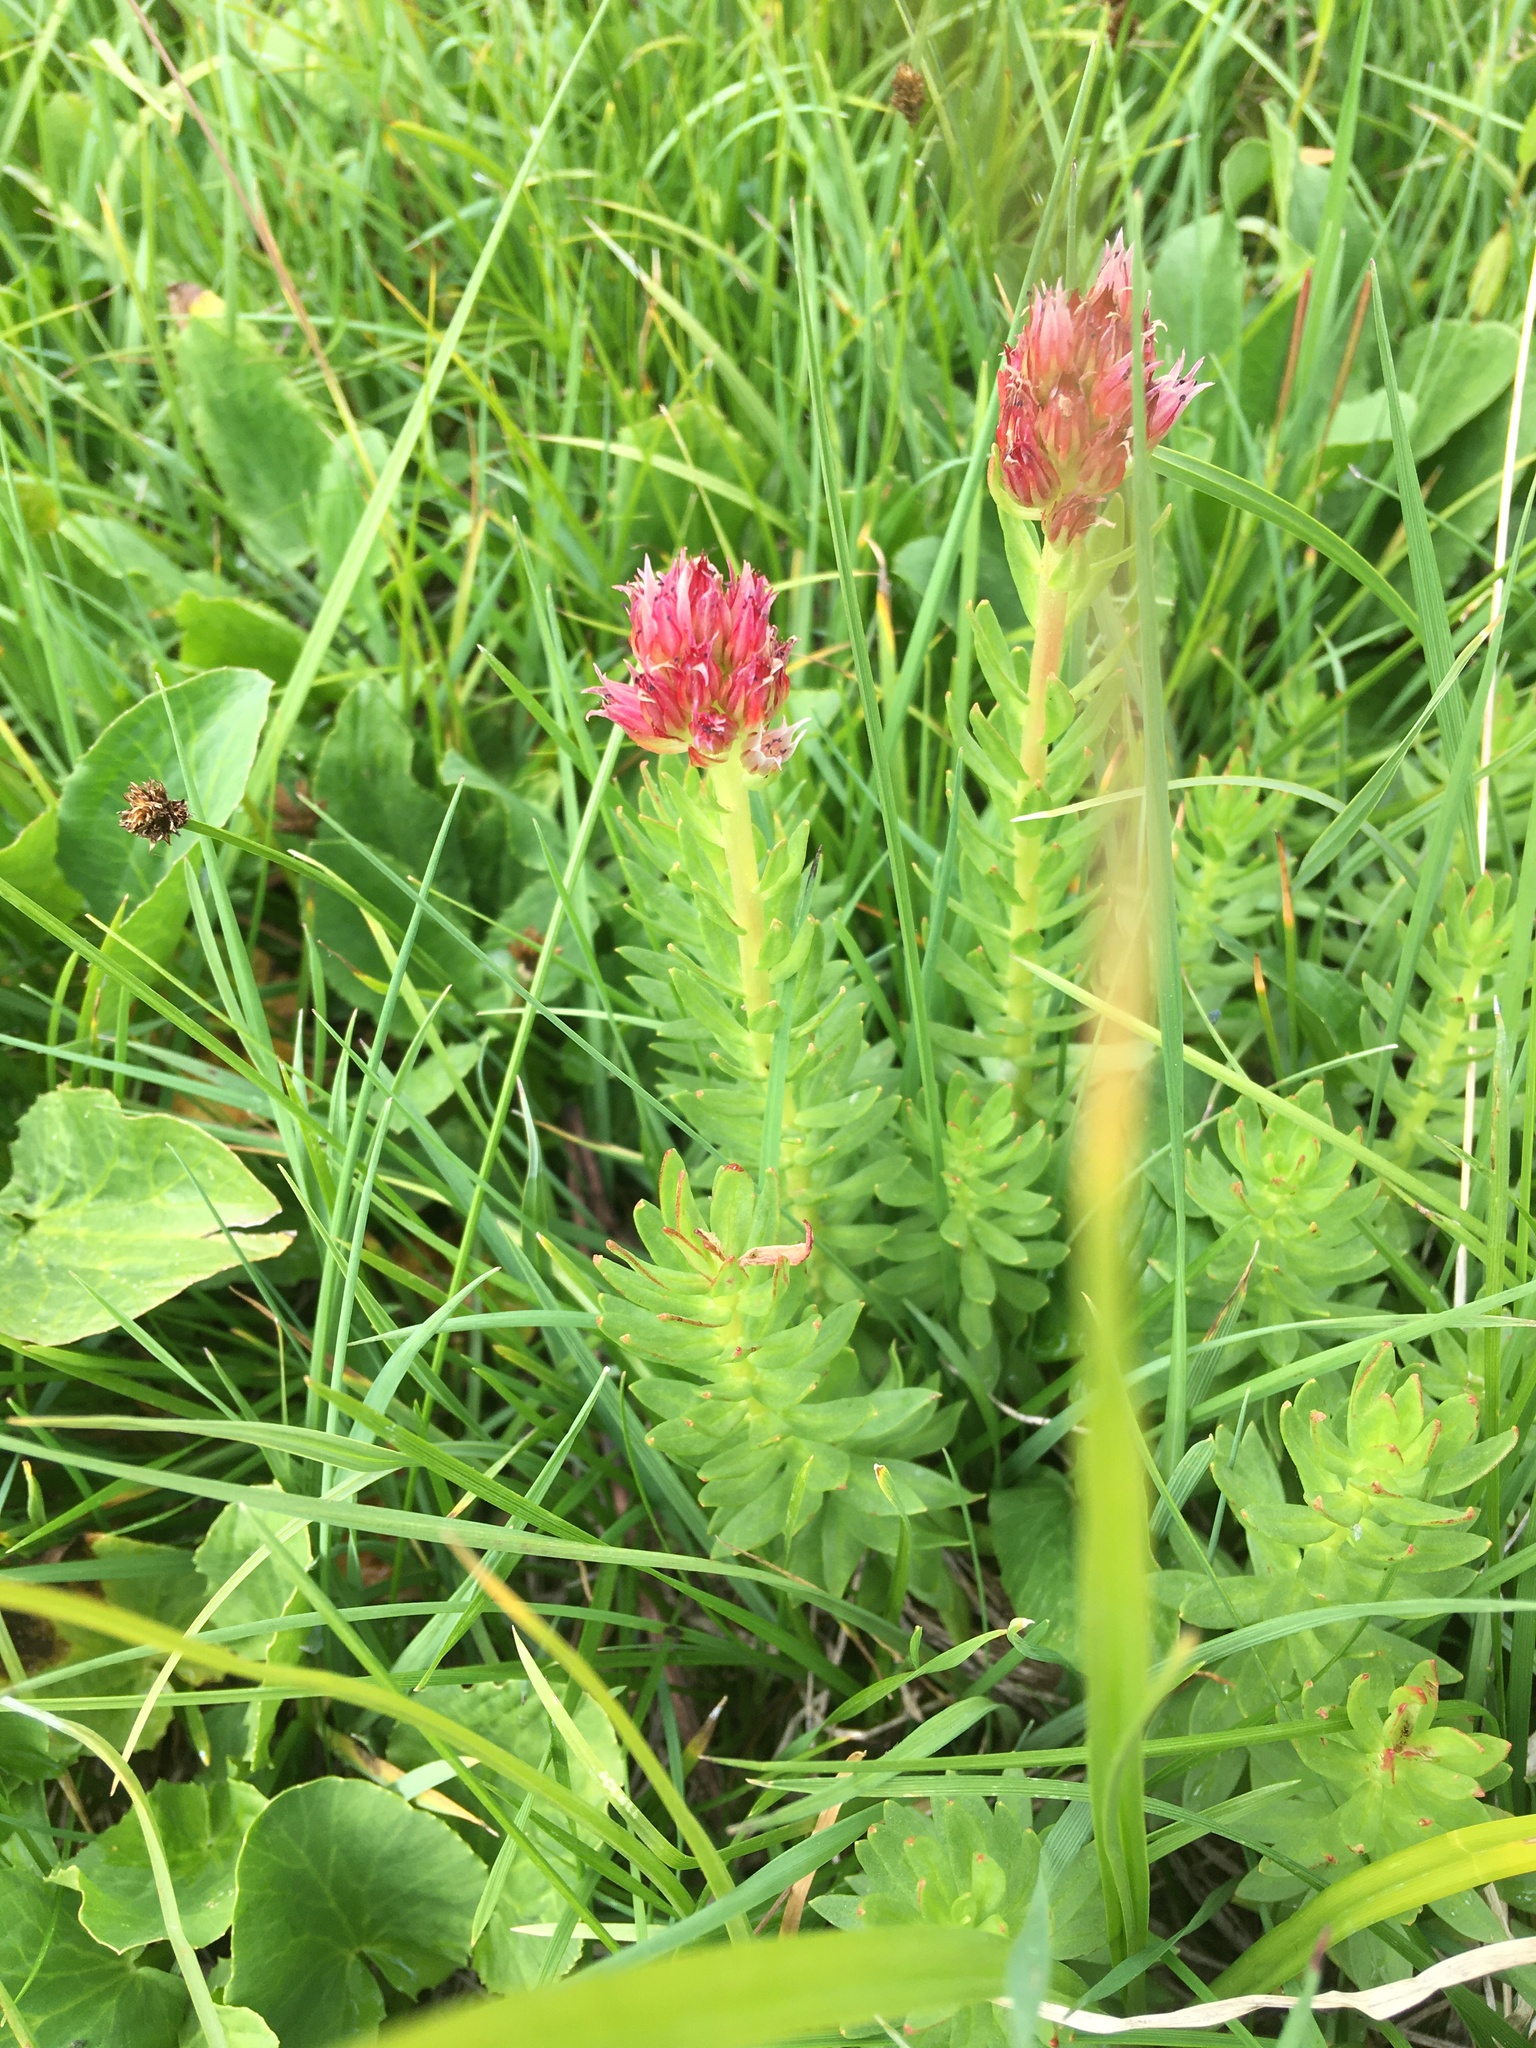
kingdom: Plantae
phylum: Tracheophyta
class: Magnoliopsida
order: Saxifragales
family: Crassulaceae
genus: Rhodiola
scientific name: Rhodiola rhodantha
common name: Red orpine
